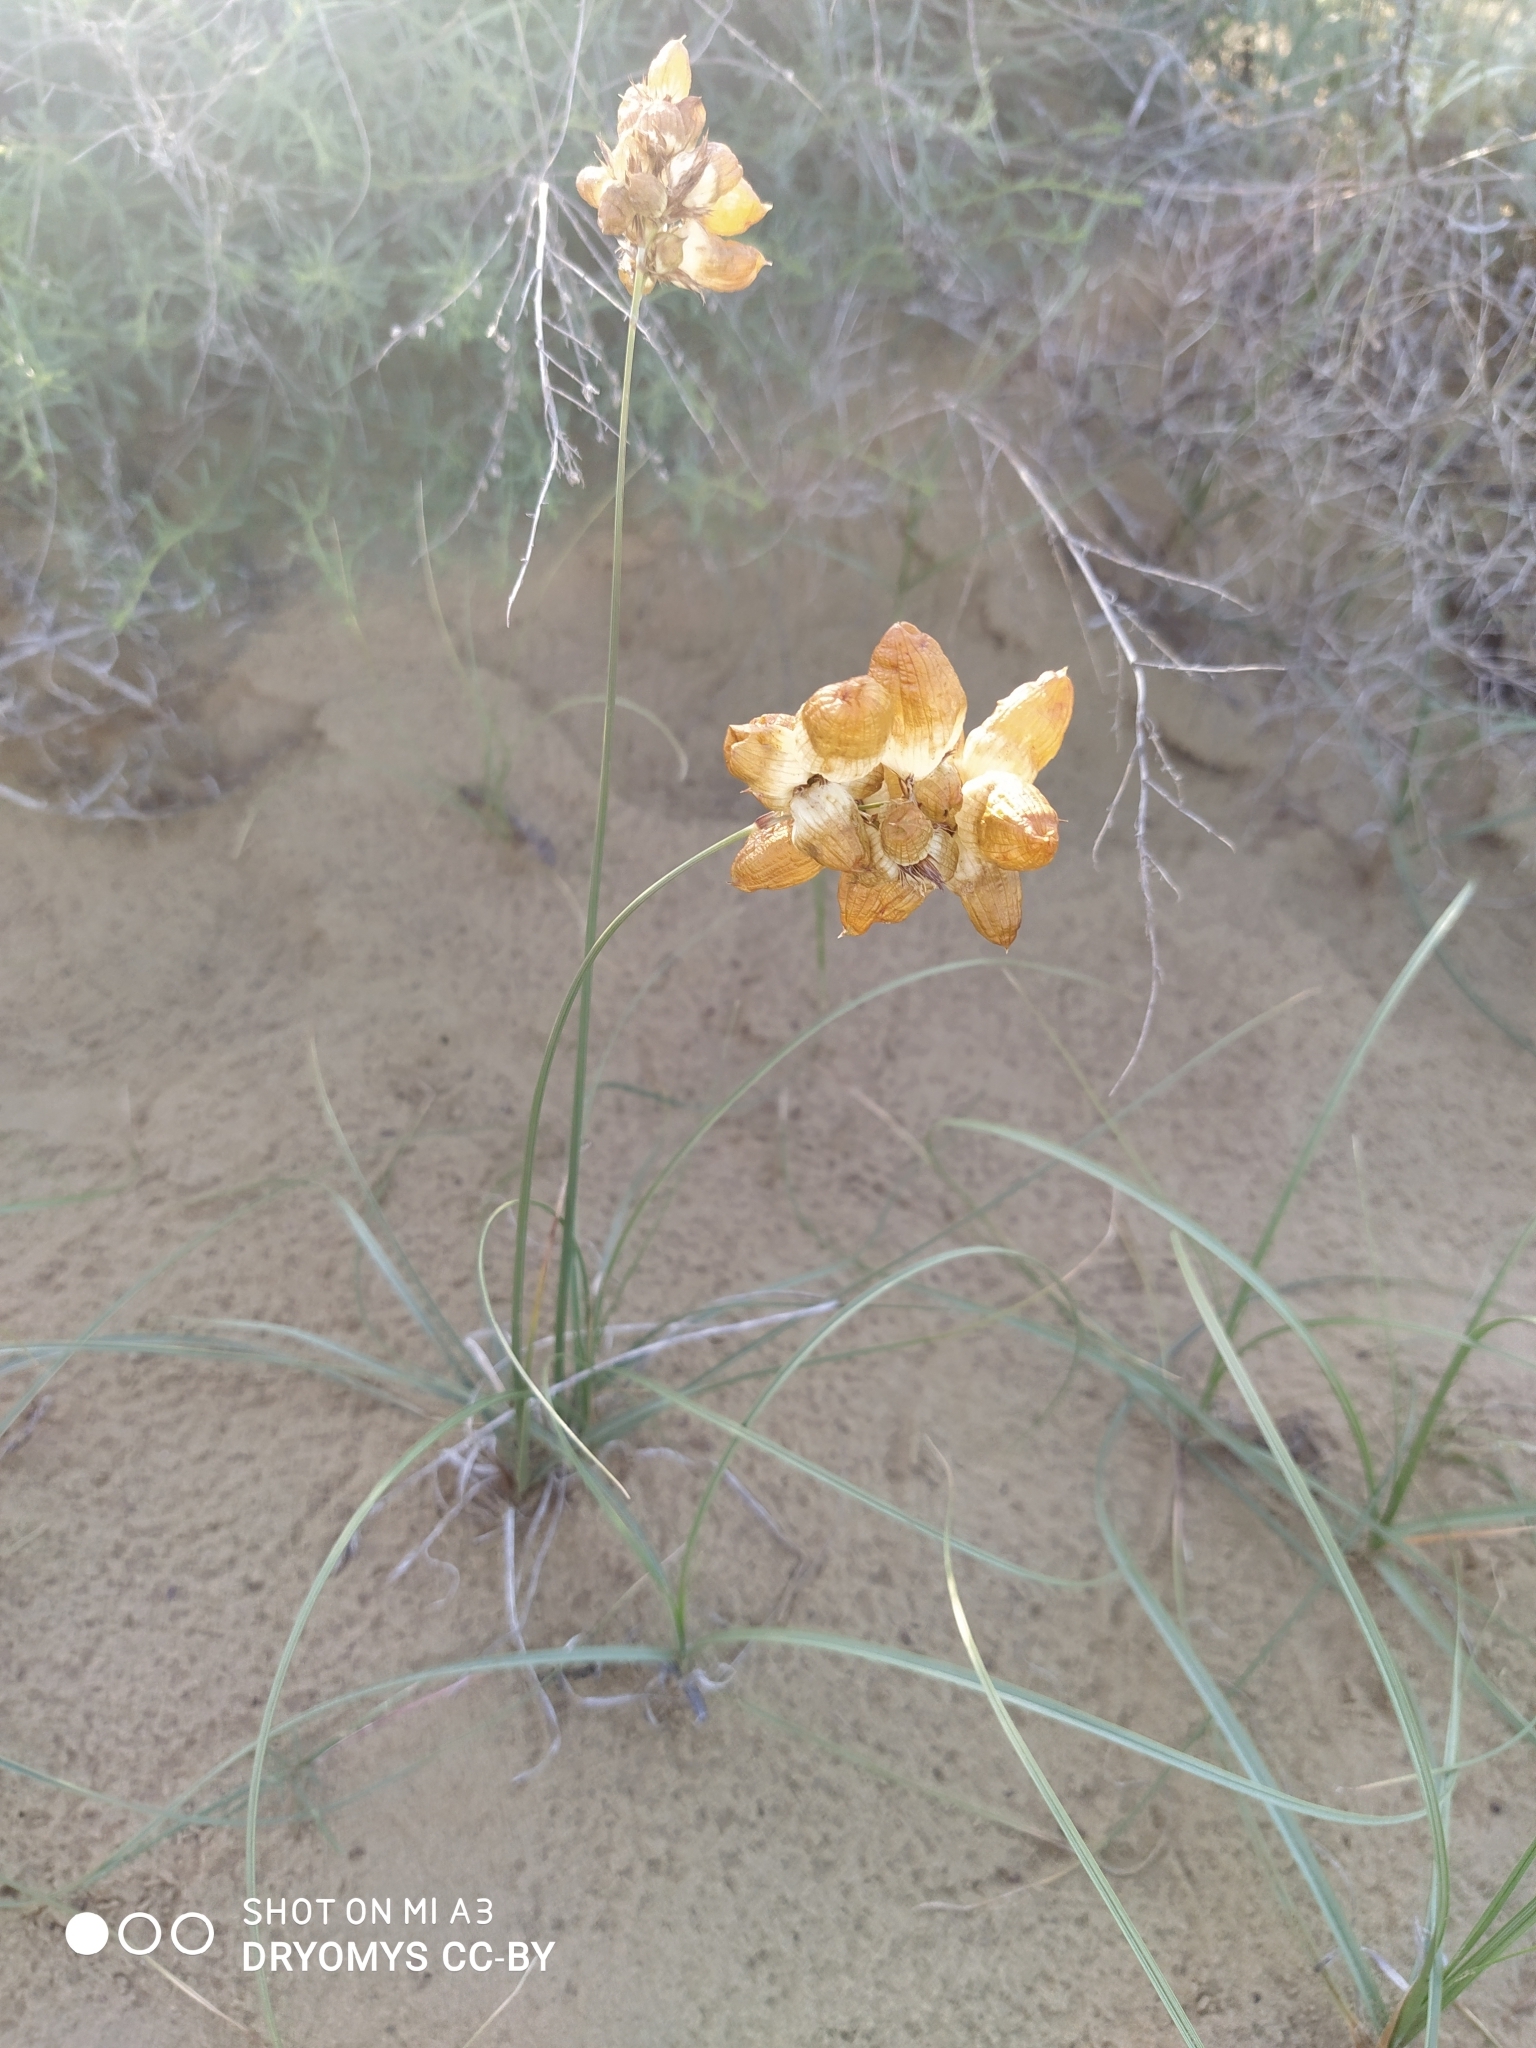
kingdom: Plantae
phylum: Tracheophyta
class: Liliopsida
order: Poales
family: Cyperaceae
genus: Carex
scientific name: Carex physodes
